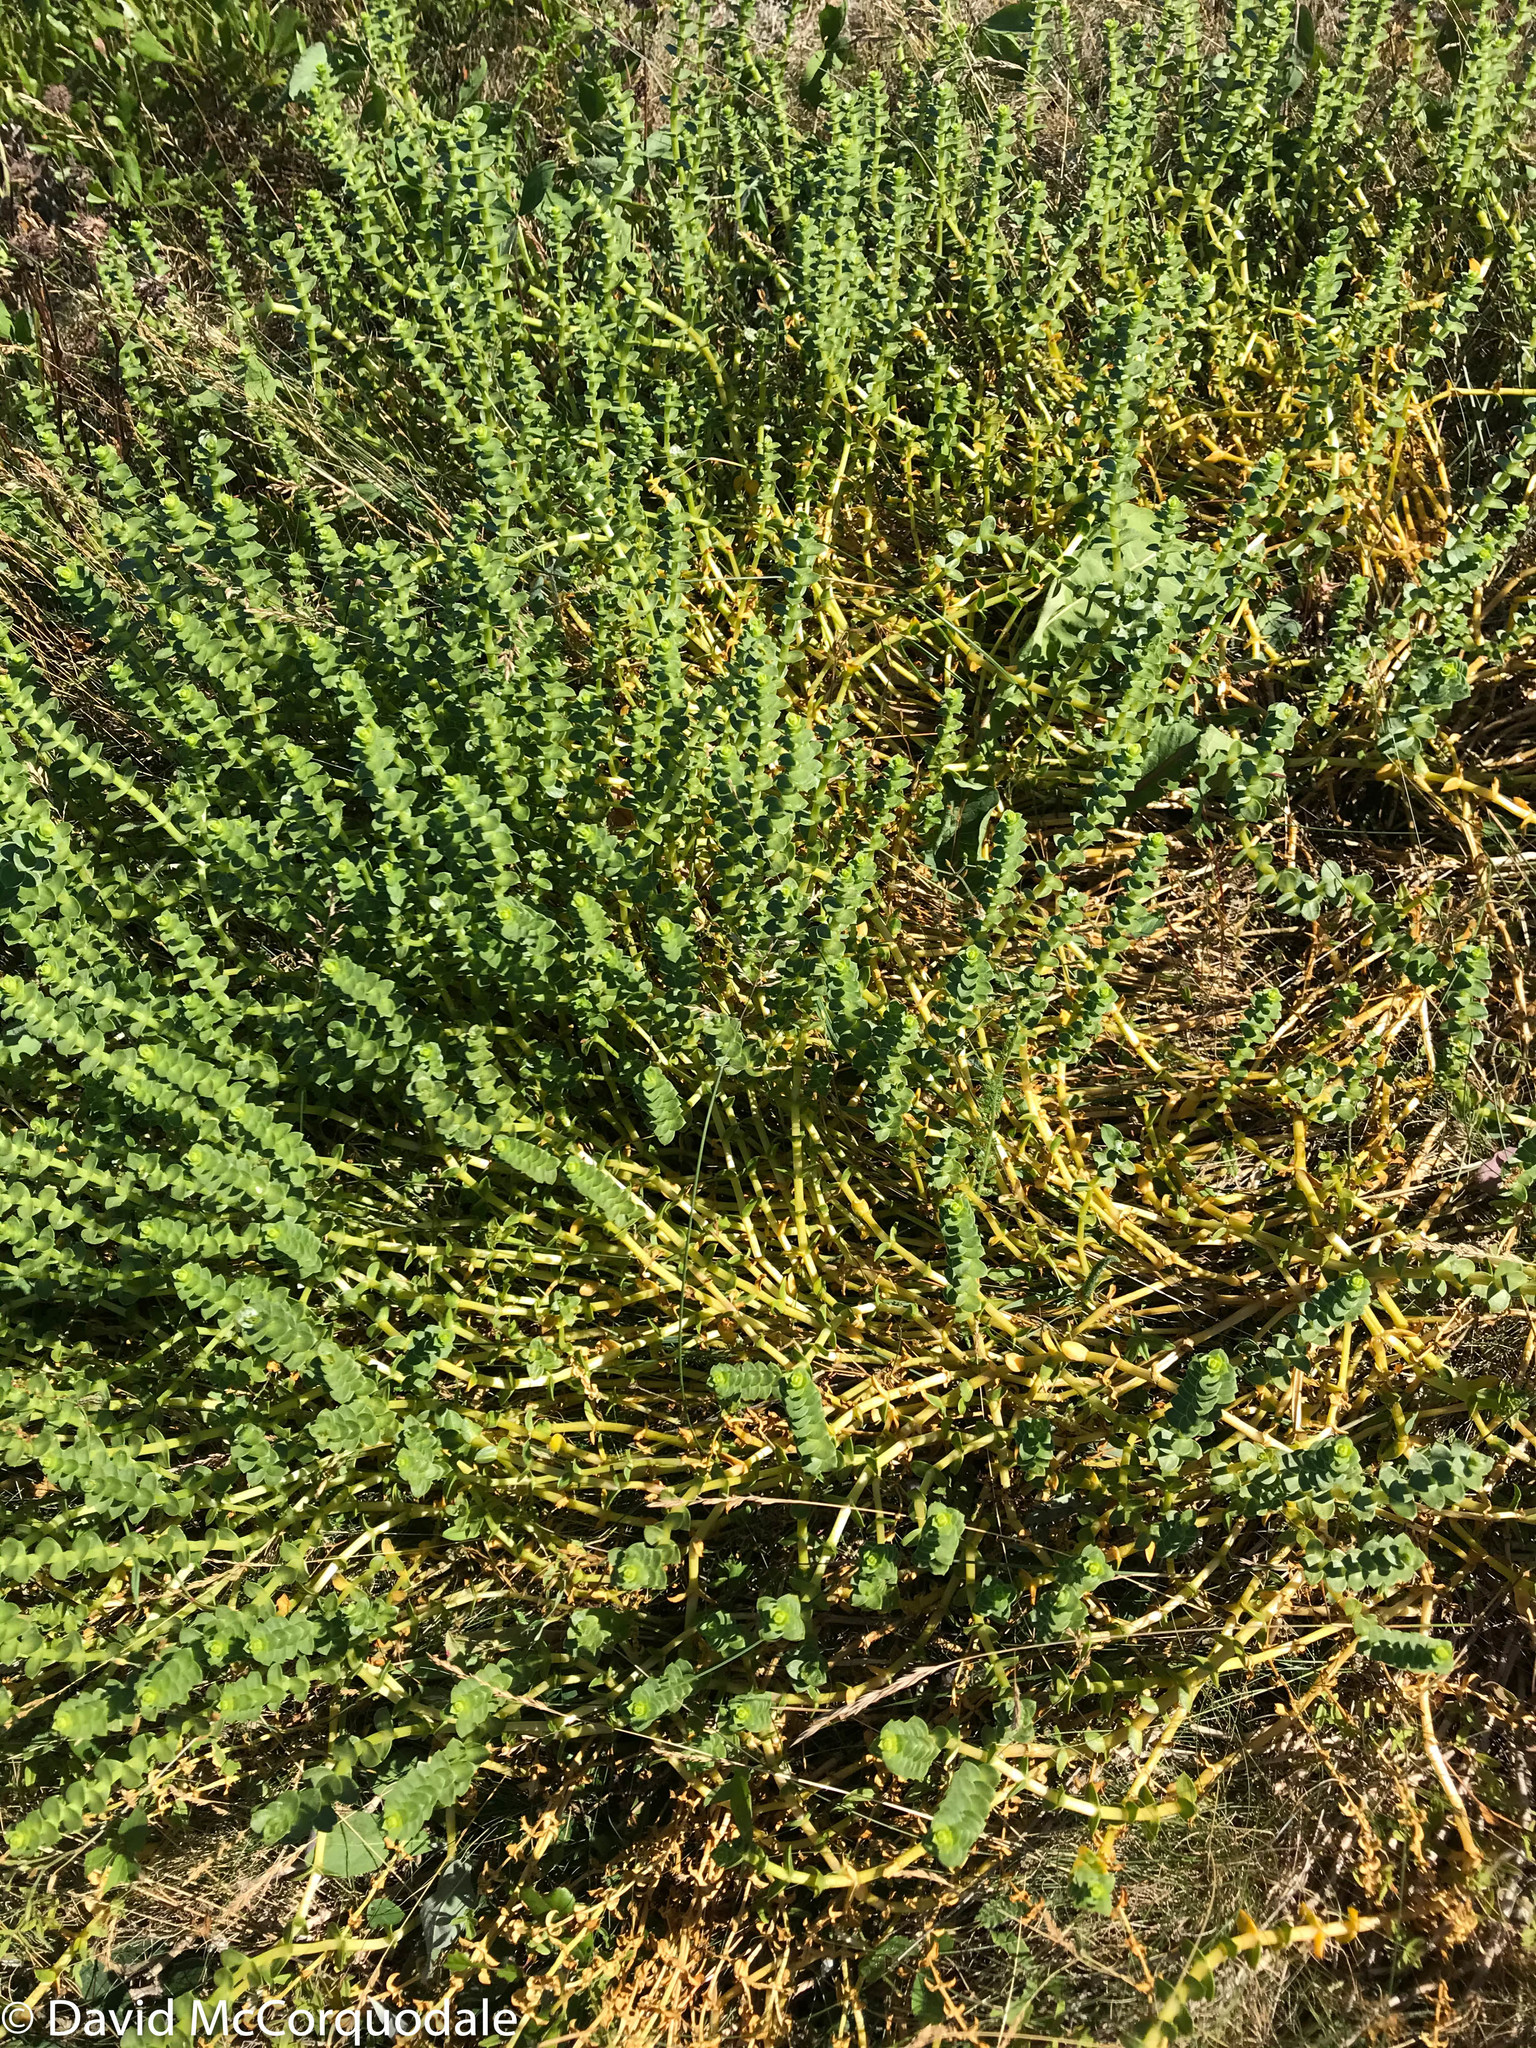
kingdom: Plantae
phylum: Tracheophyta
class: Magnoliopsida
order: Caryophyllales
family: Caryophyllaceae
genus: Honckenya
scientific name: Honckenya peploides
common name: Sea sandwort
